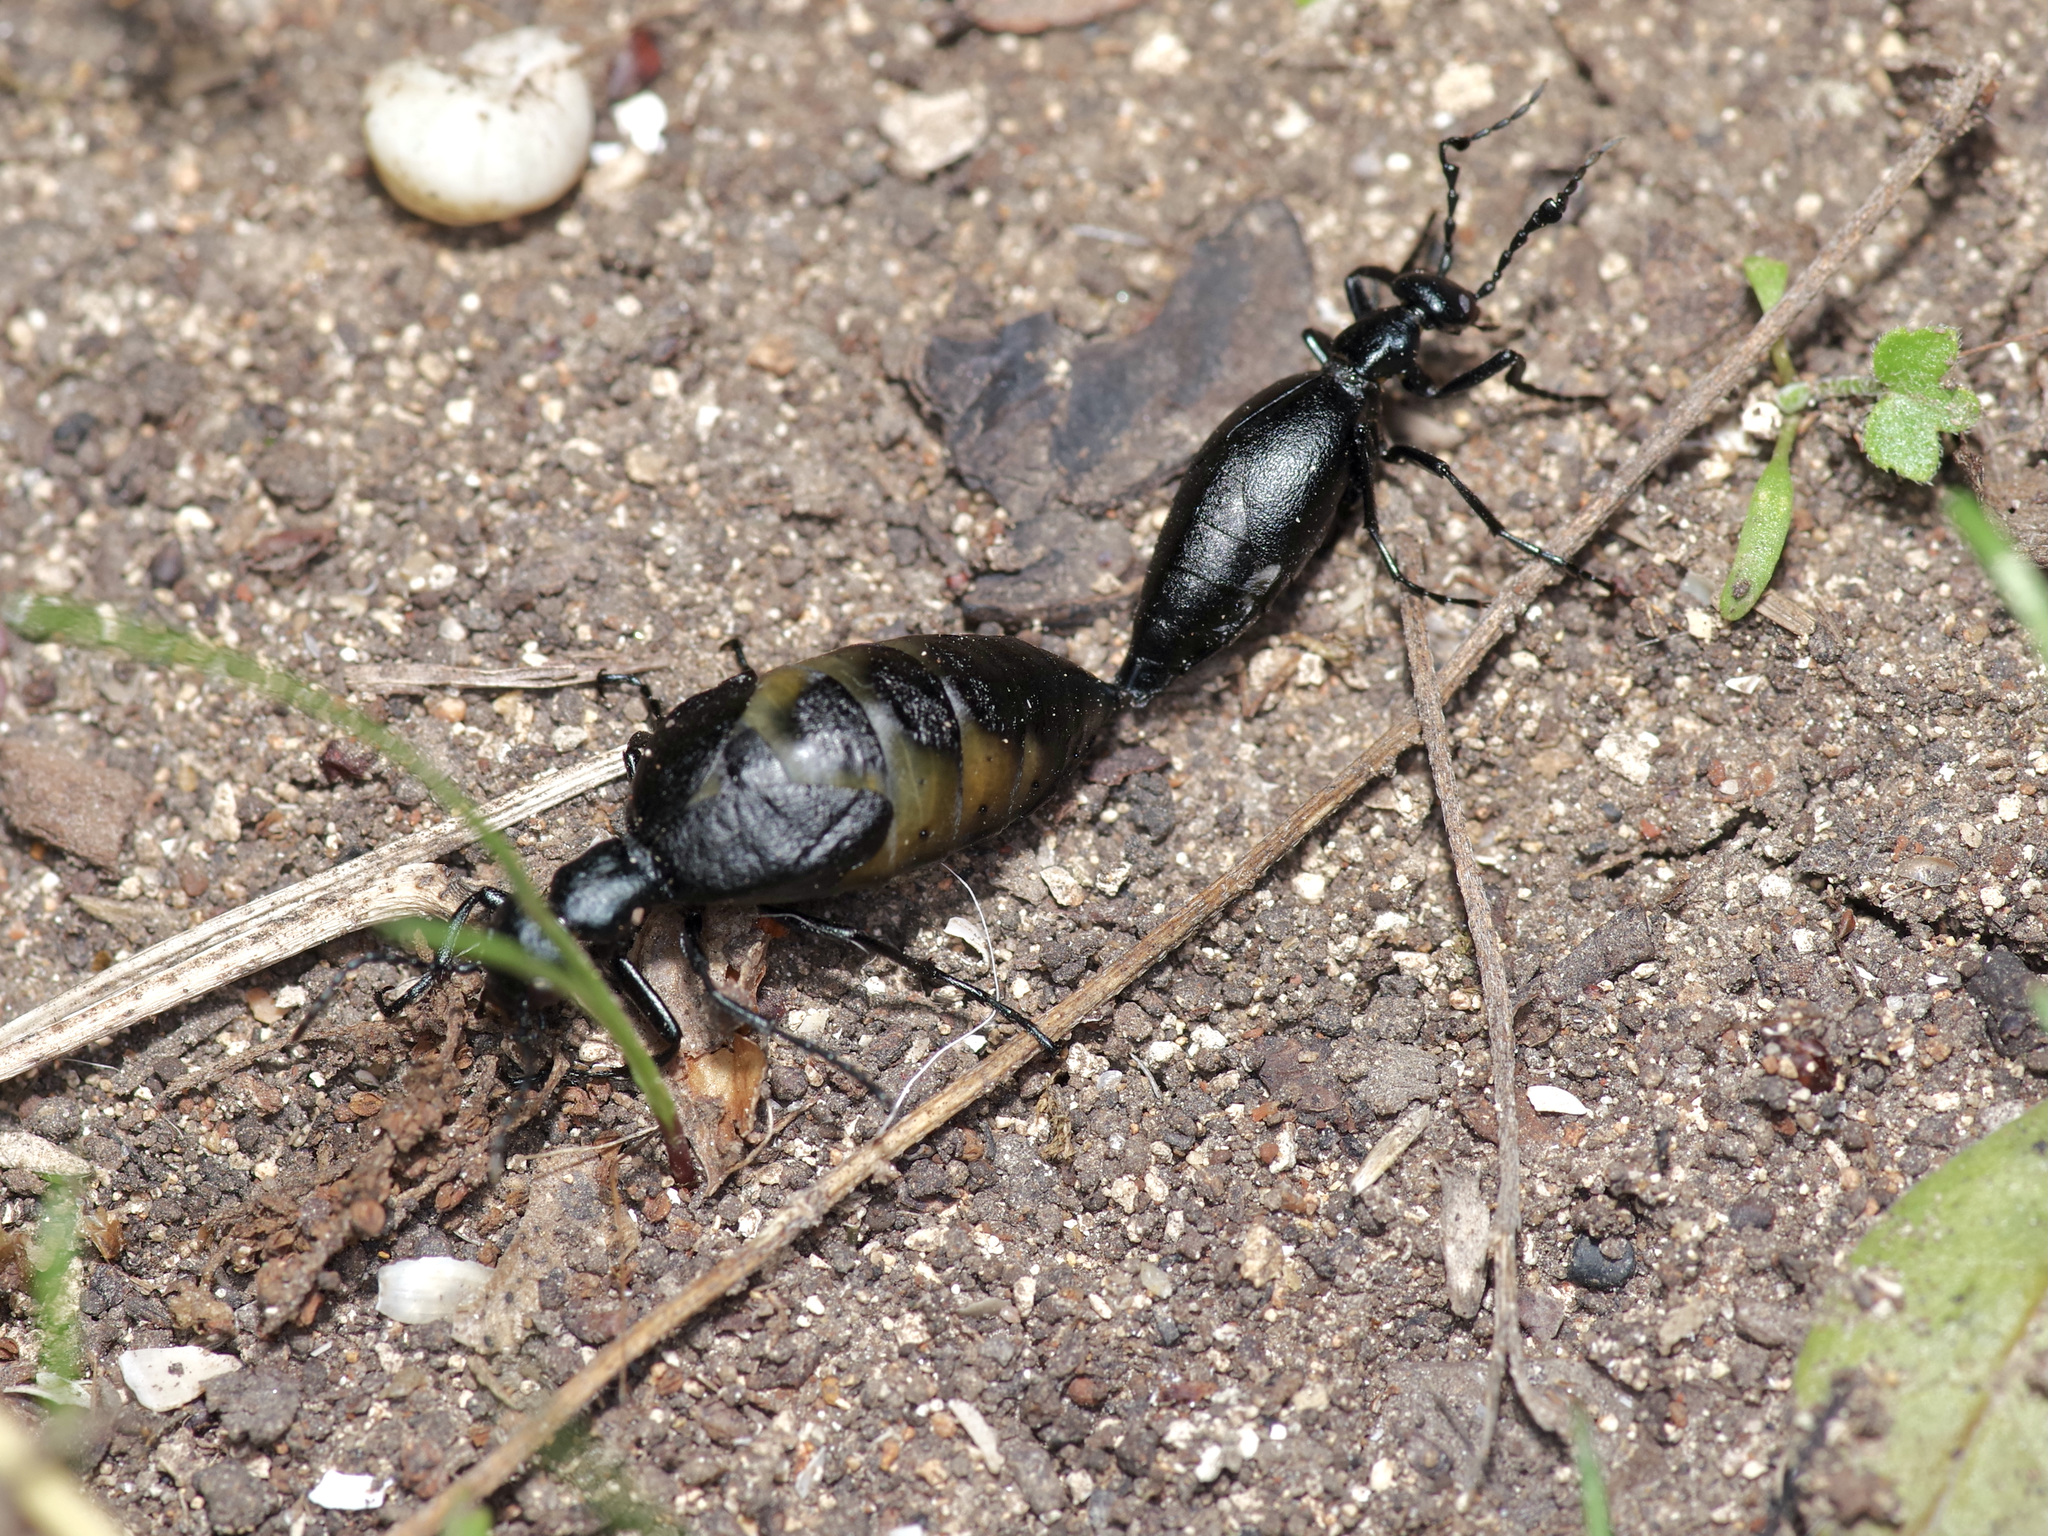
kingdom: Animalia
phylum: Arthropoda
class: Insecta
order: Coleoptera
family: Meloidae
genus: Meloe
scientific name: Meloe americanus
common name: Buttercup oil beetle
